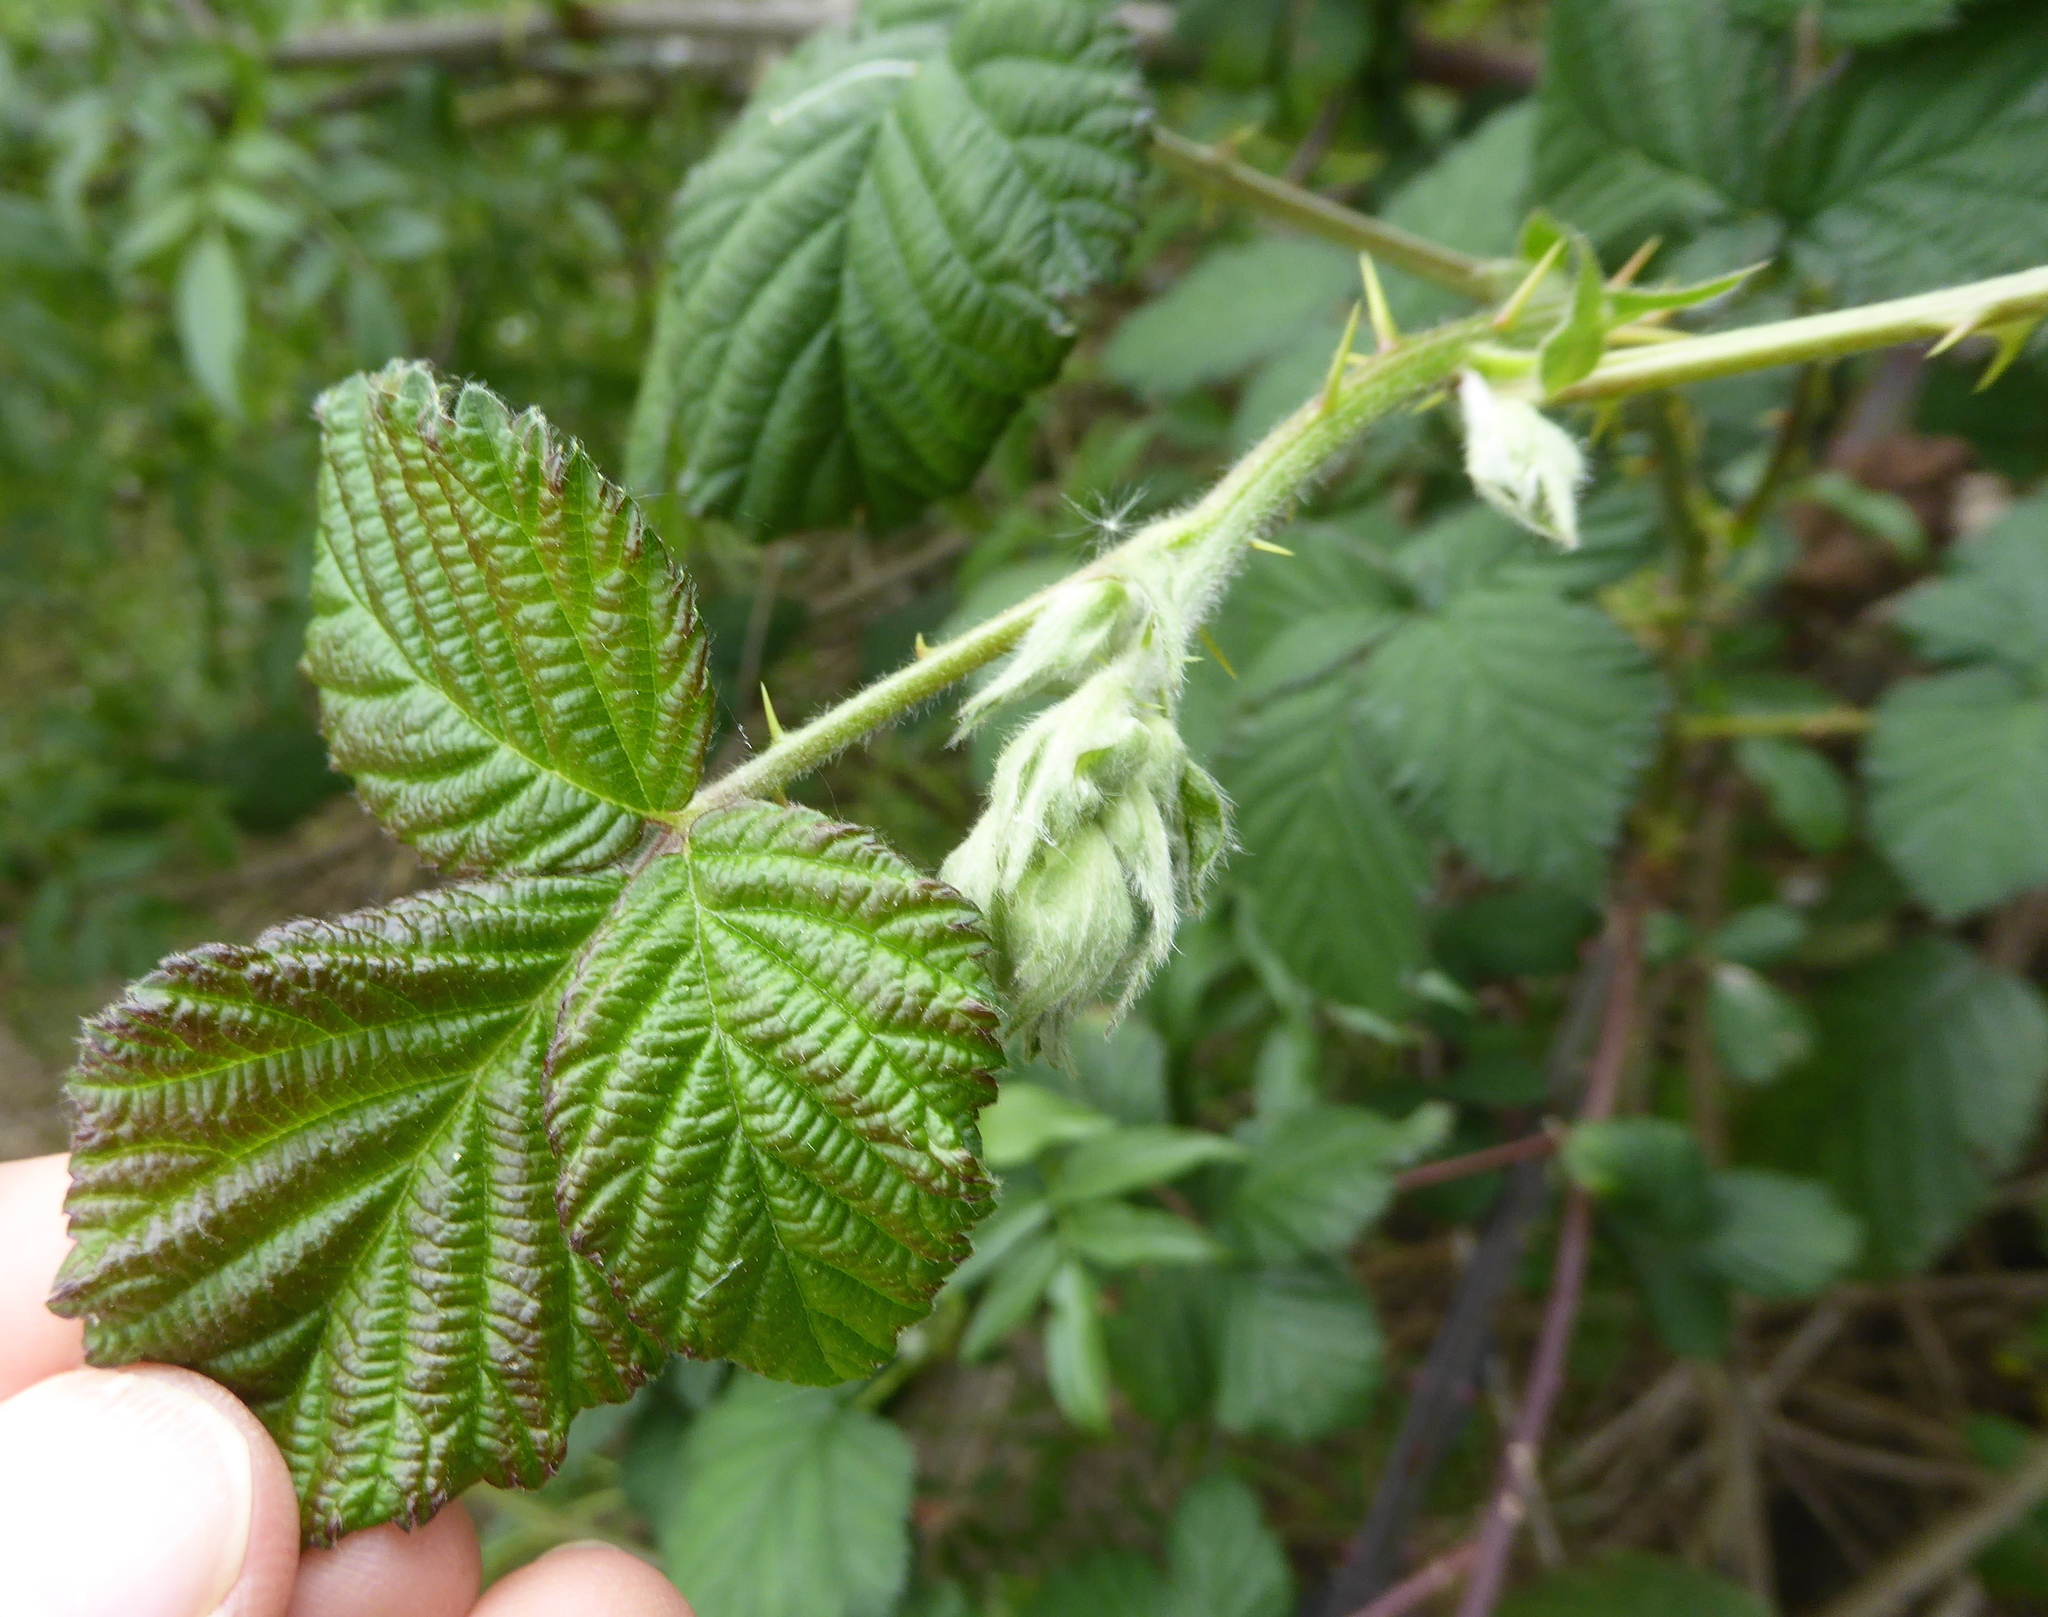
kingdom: Plantae
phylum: Tracheophyta
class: Magnoliopsida
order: Rosales
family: Rosaceae
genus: Rubus
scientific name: Rubus armeniacus
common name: Himalayan blackberry
